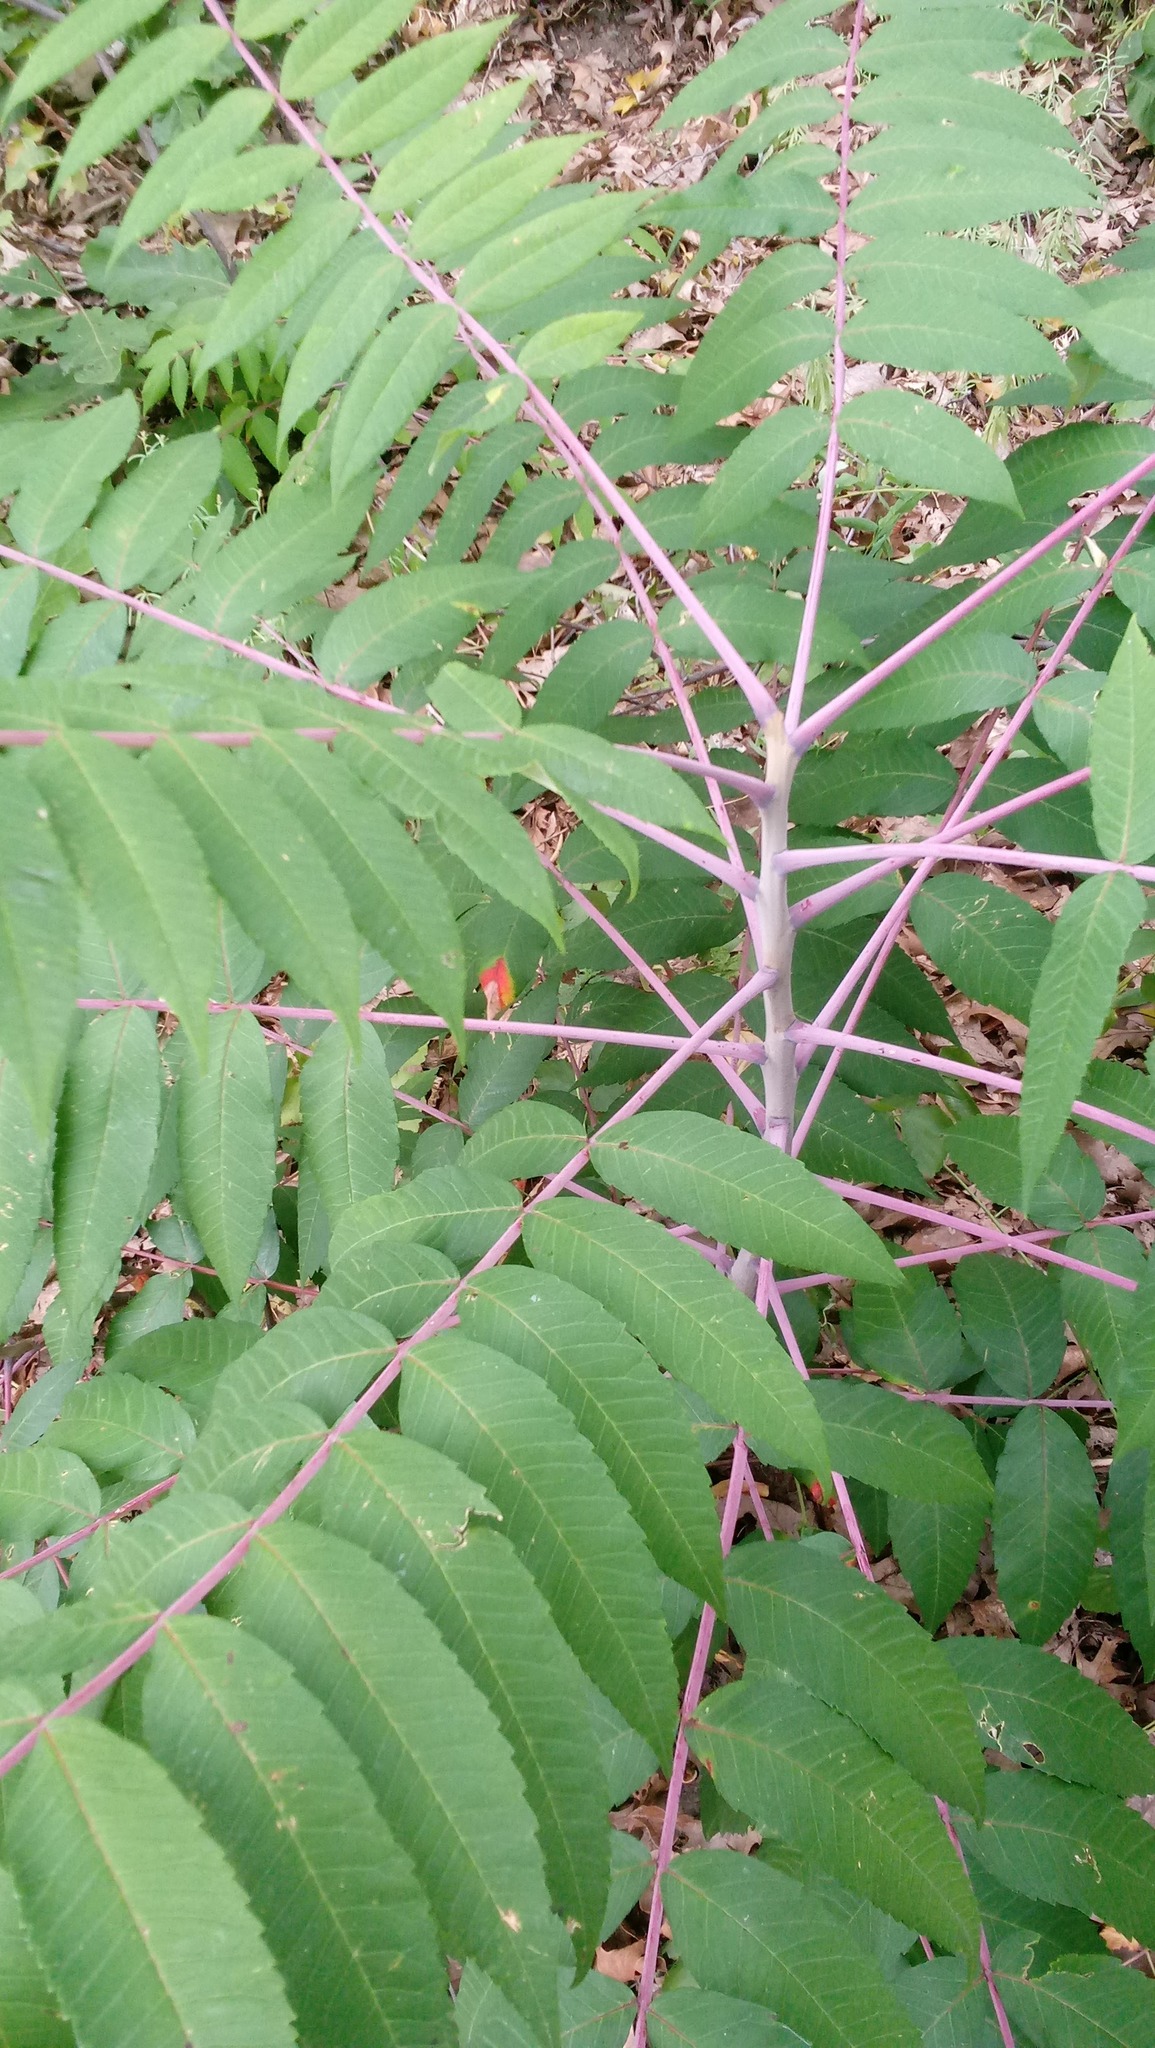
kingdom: Plantae
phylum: Tracheophyta
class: Magnoliopsida
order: Sapindales
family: Anacardiaceae
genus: Rhus
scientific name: Rhus glabra
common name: Scarlet sumac
